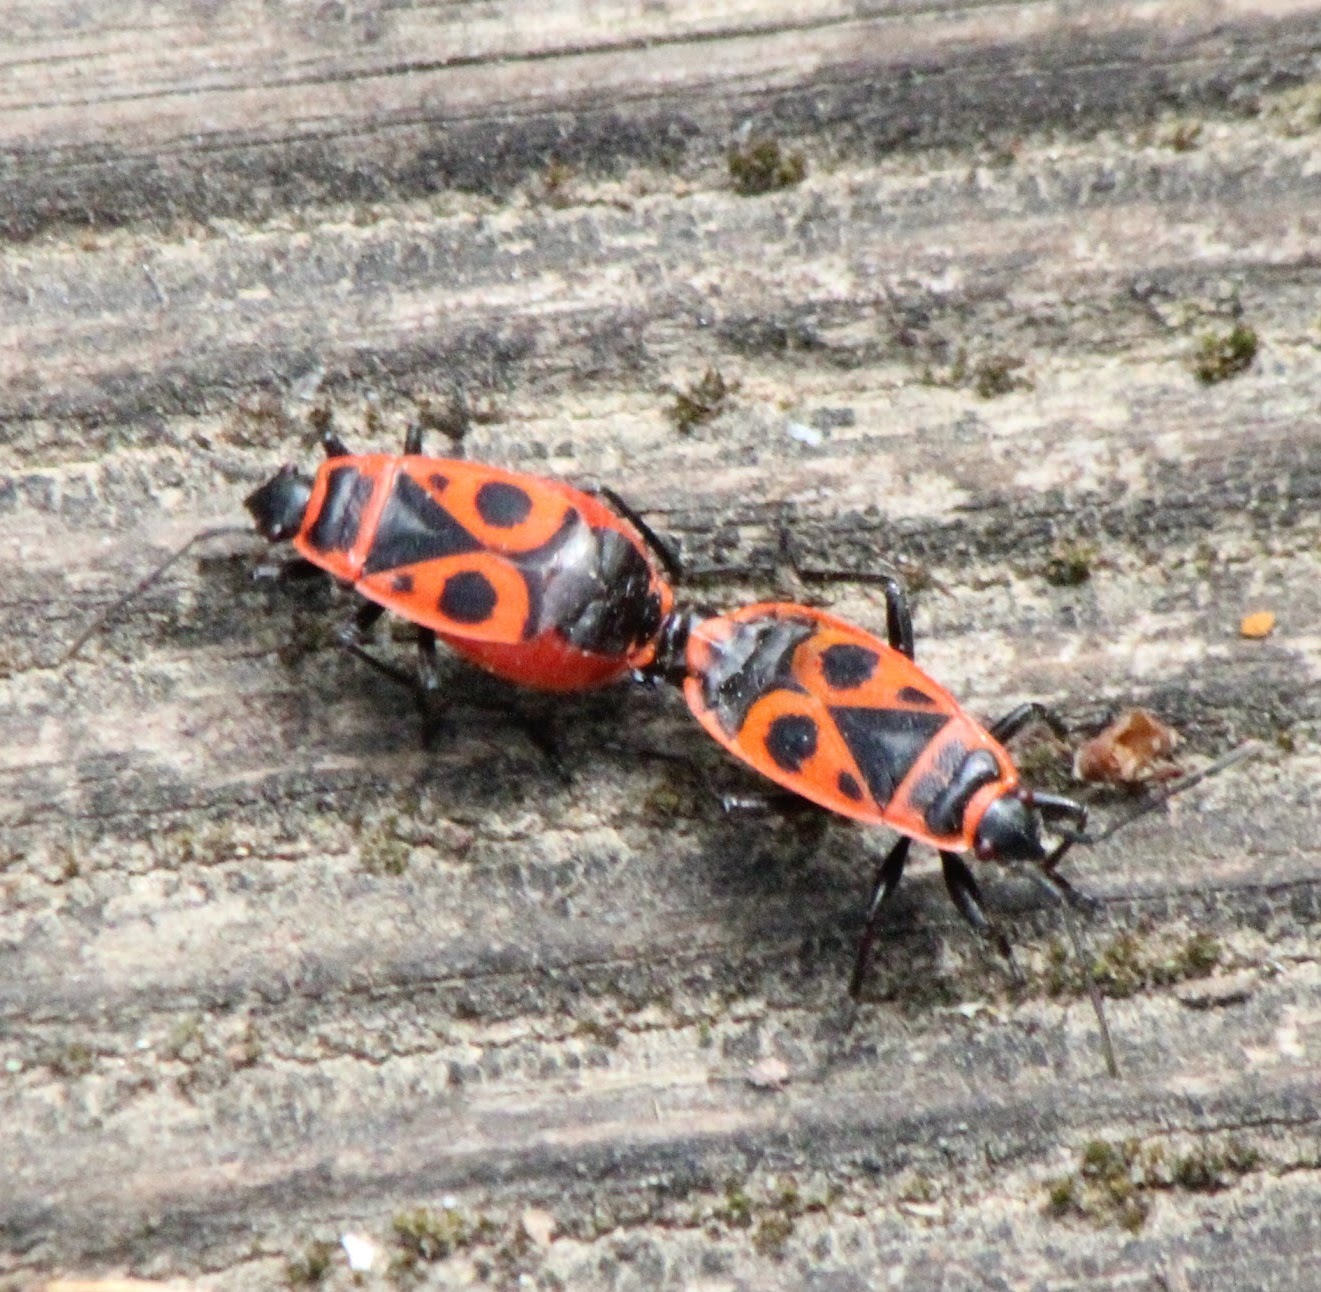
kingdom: Animalia
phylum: Arthropoda
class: Insecta
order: Hemiptera
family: Pyrrhocoridae
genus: Pyrrhocoris
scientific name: Pyrrhocoris apterus
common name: Firebug
